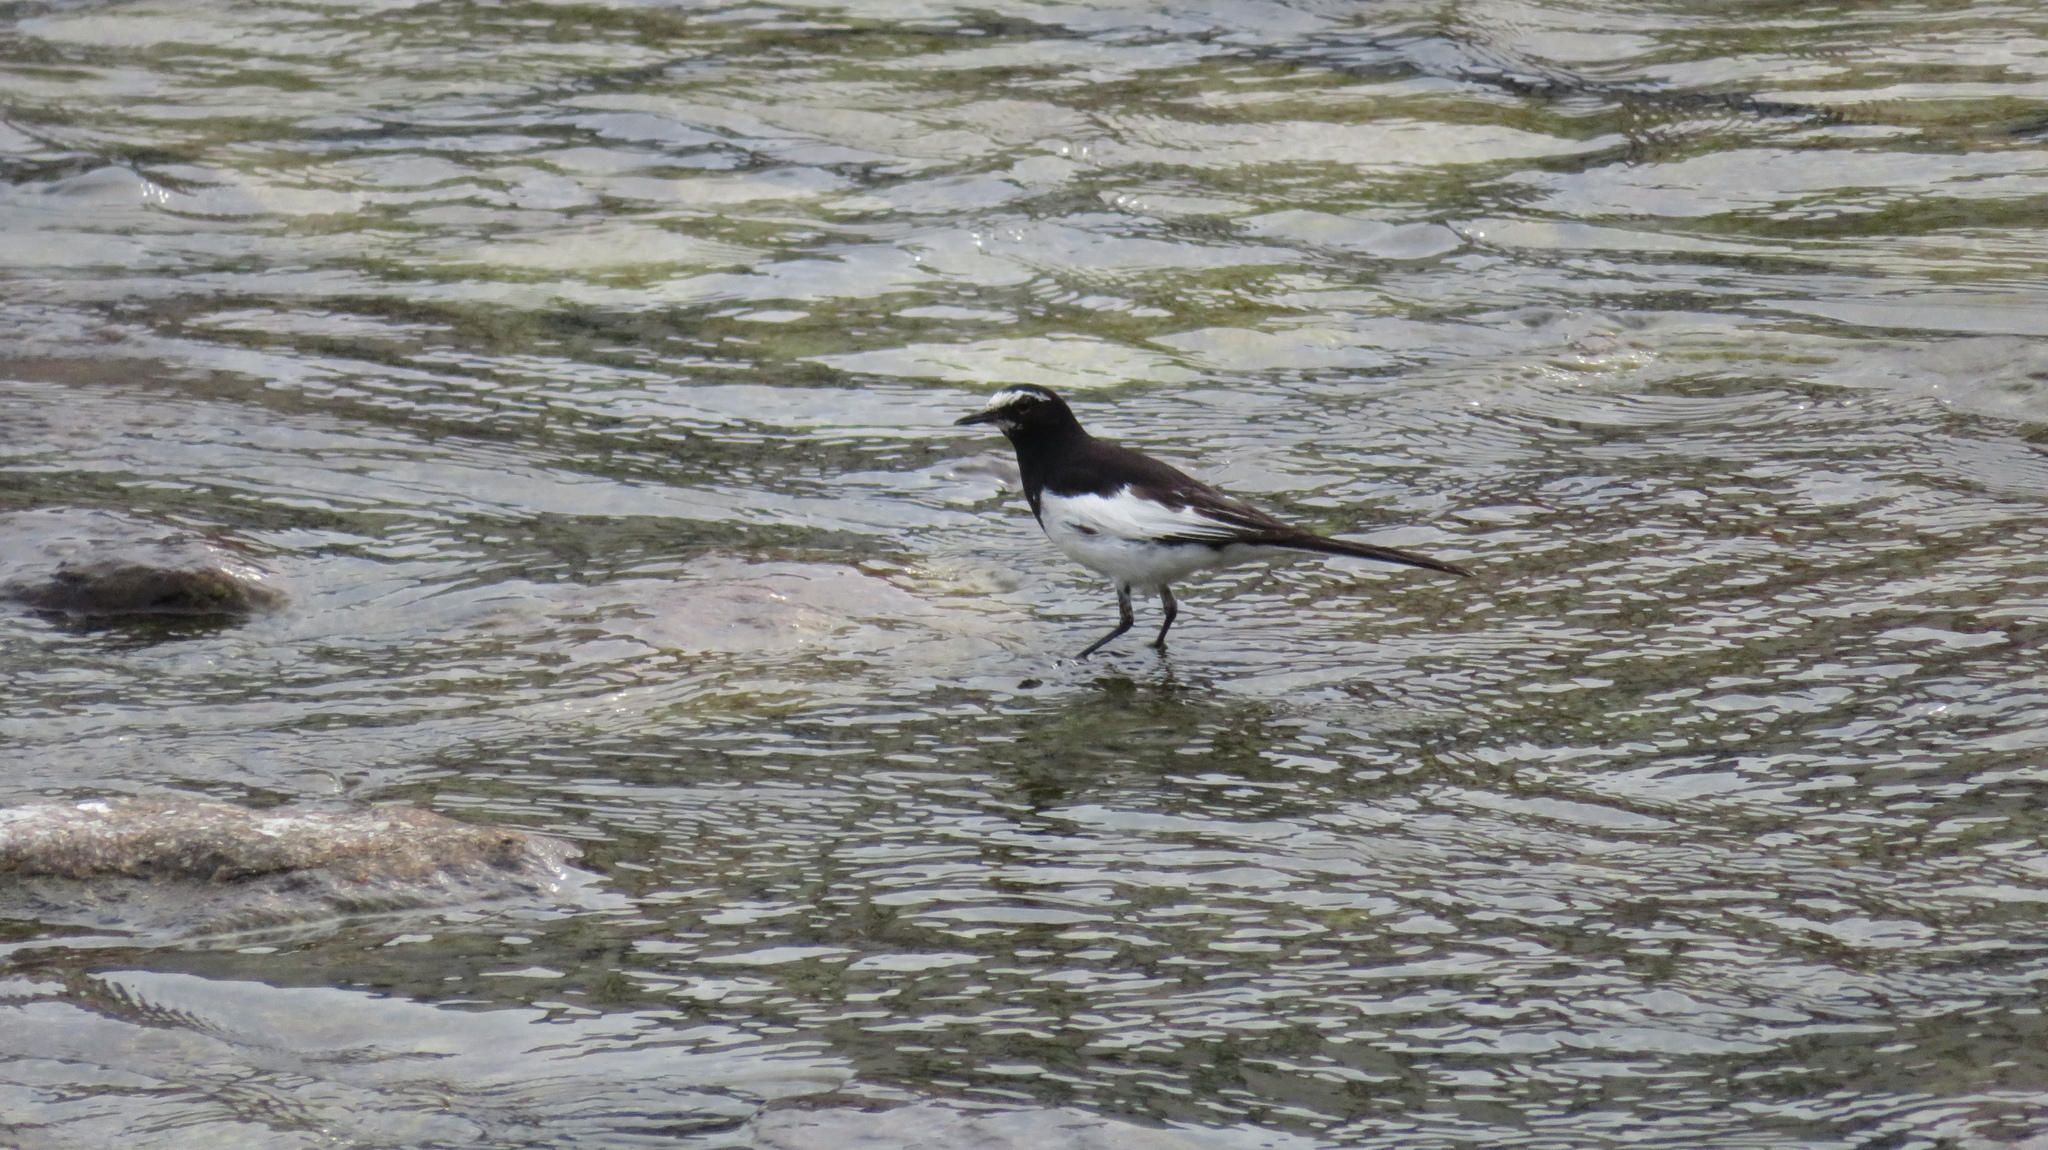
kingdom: Animalia
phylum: Chordata
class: Aves
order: Passeriformes
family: Motacillidae
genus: Motacilla
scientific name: Motacilla grandis
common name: Japanese wagtail
